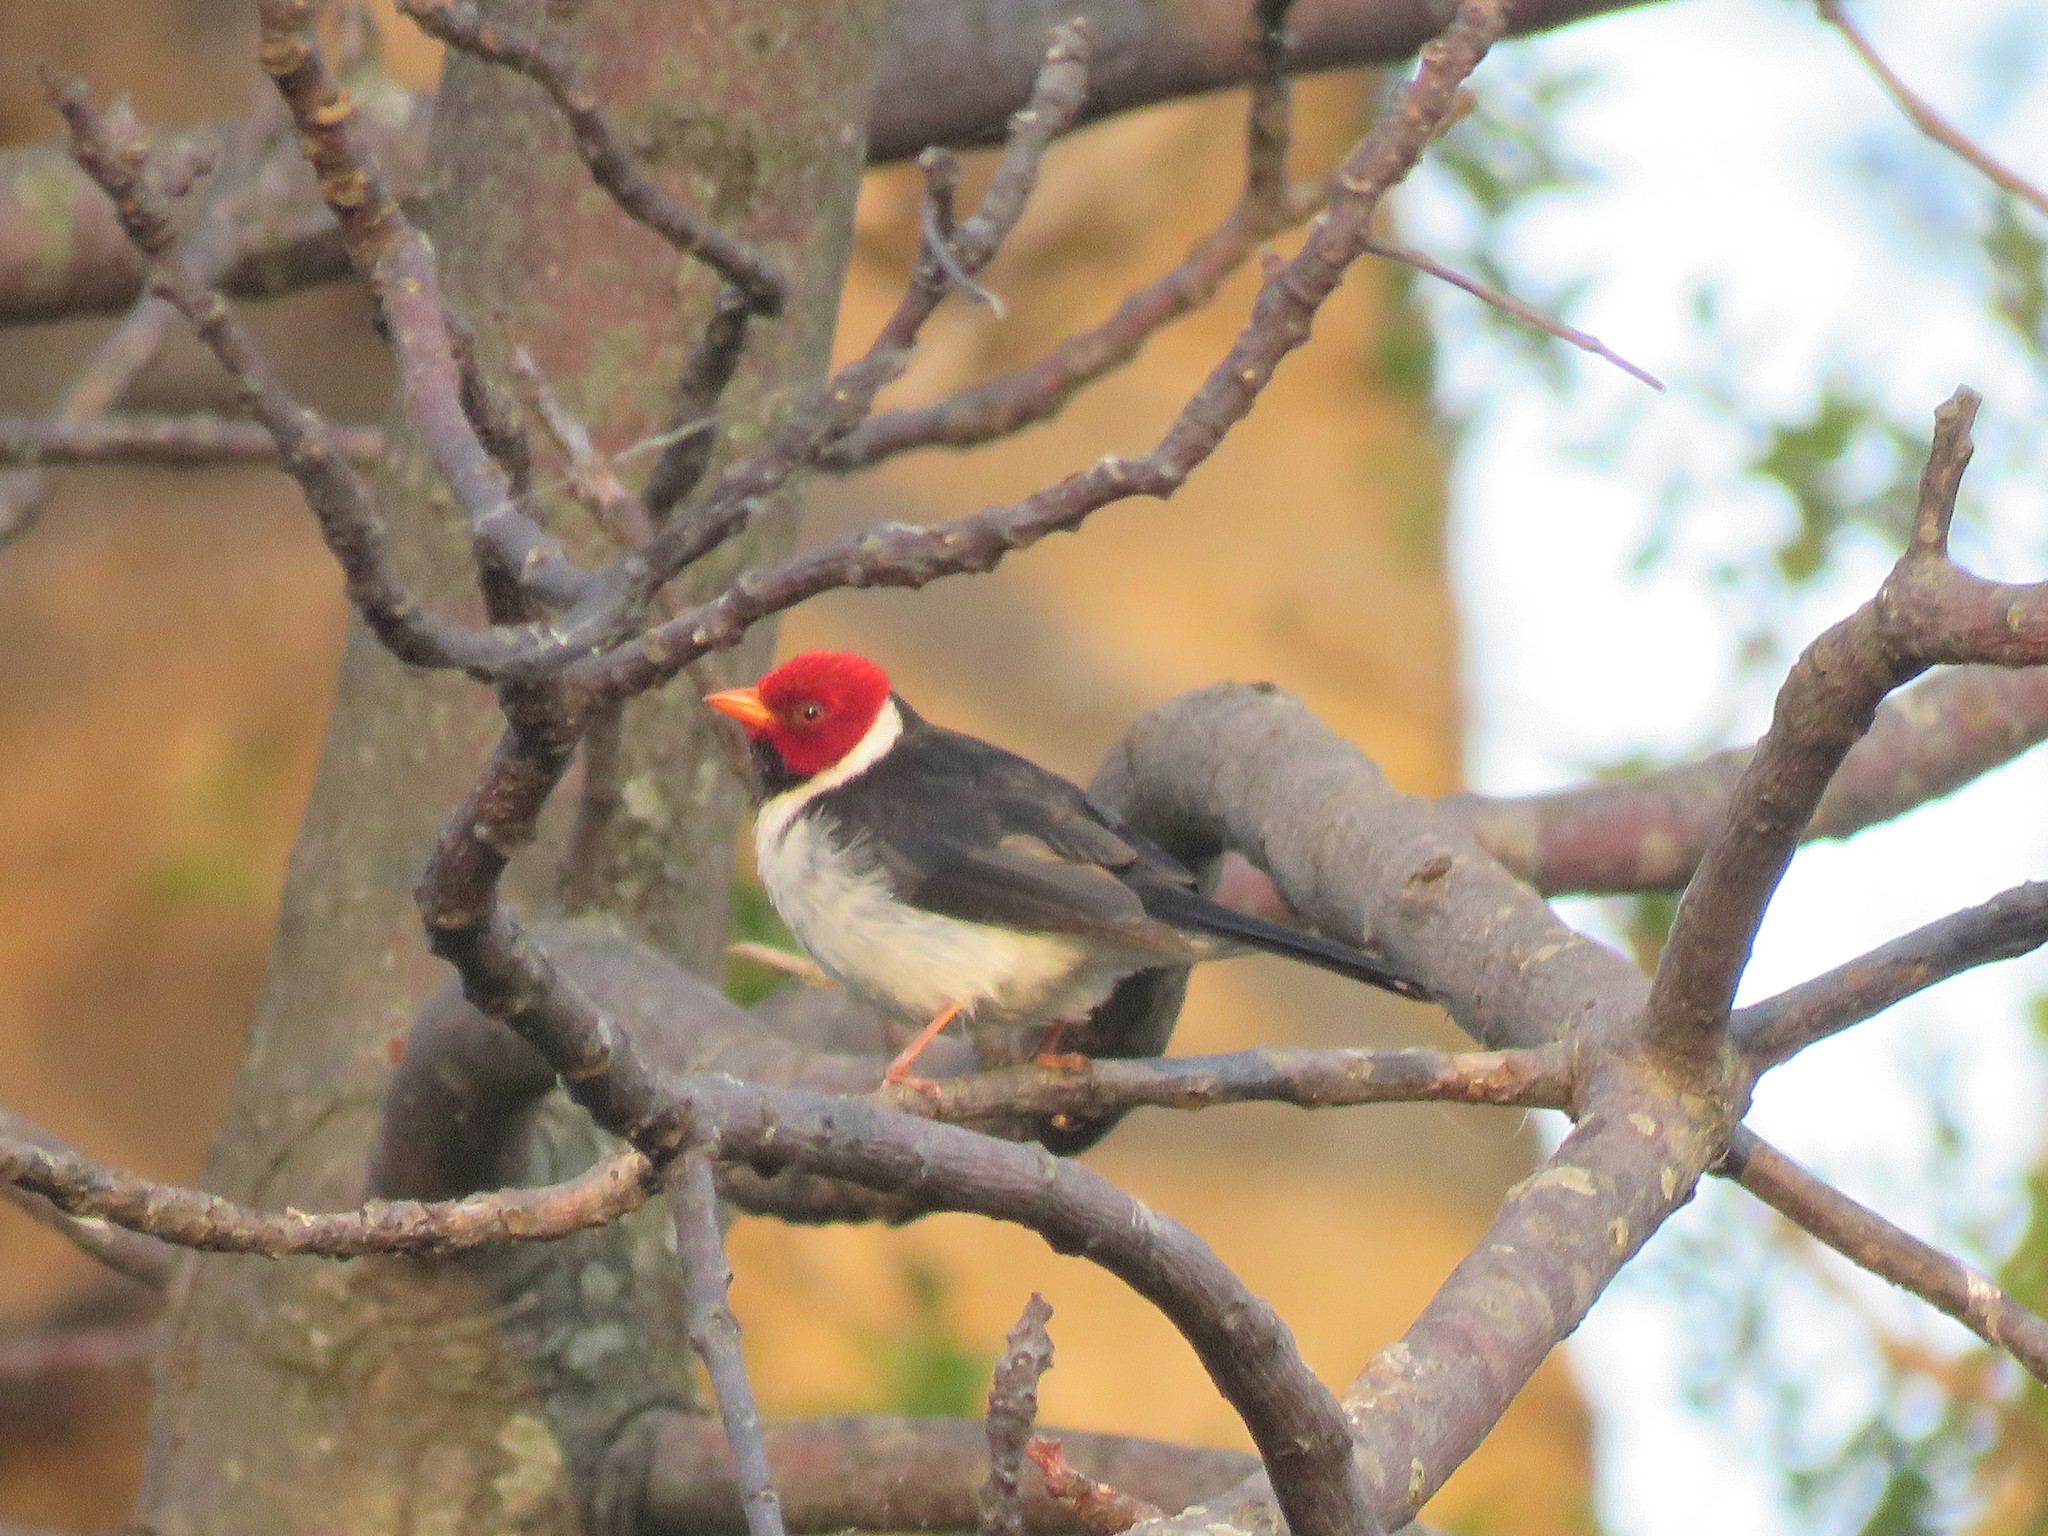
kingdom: Animalia
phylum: Chordata
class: Aves
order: Passeriformes
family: Thraupidae
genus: Paroaria
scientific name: Paroaria capitata
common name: Yellow-billed cardinal
